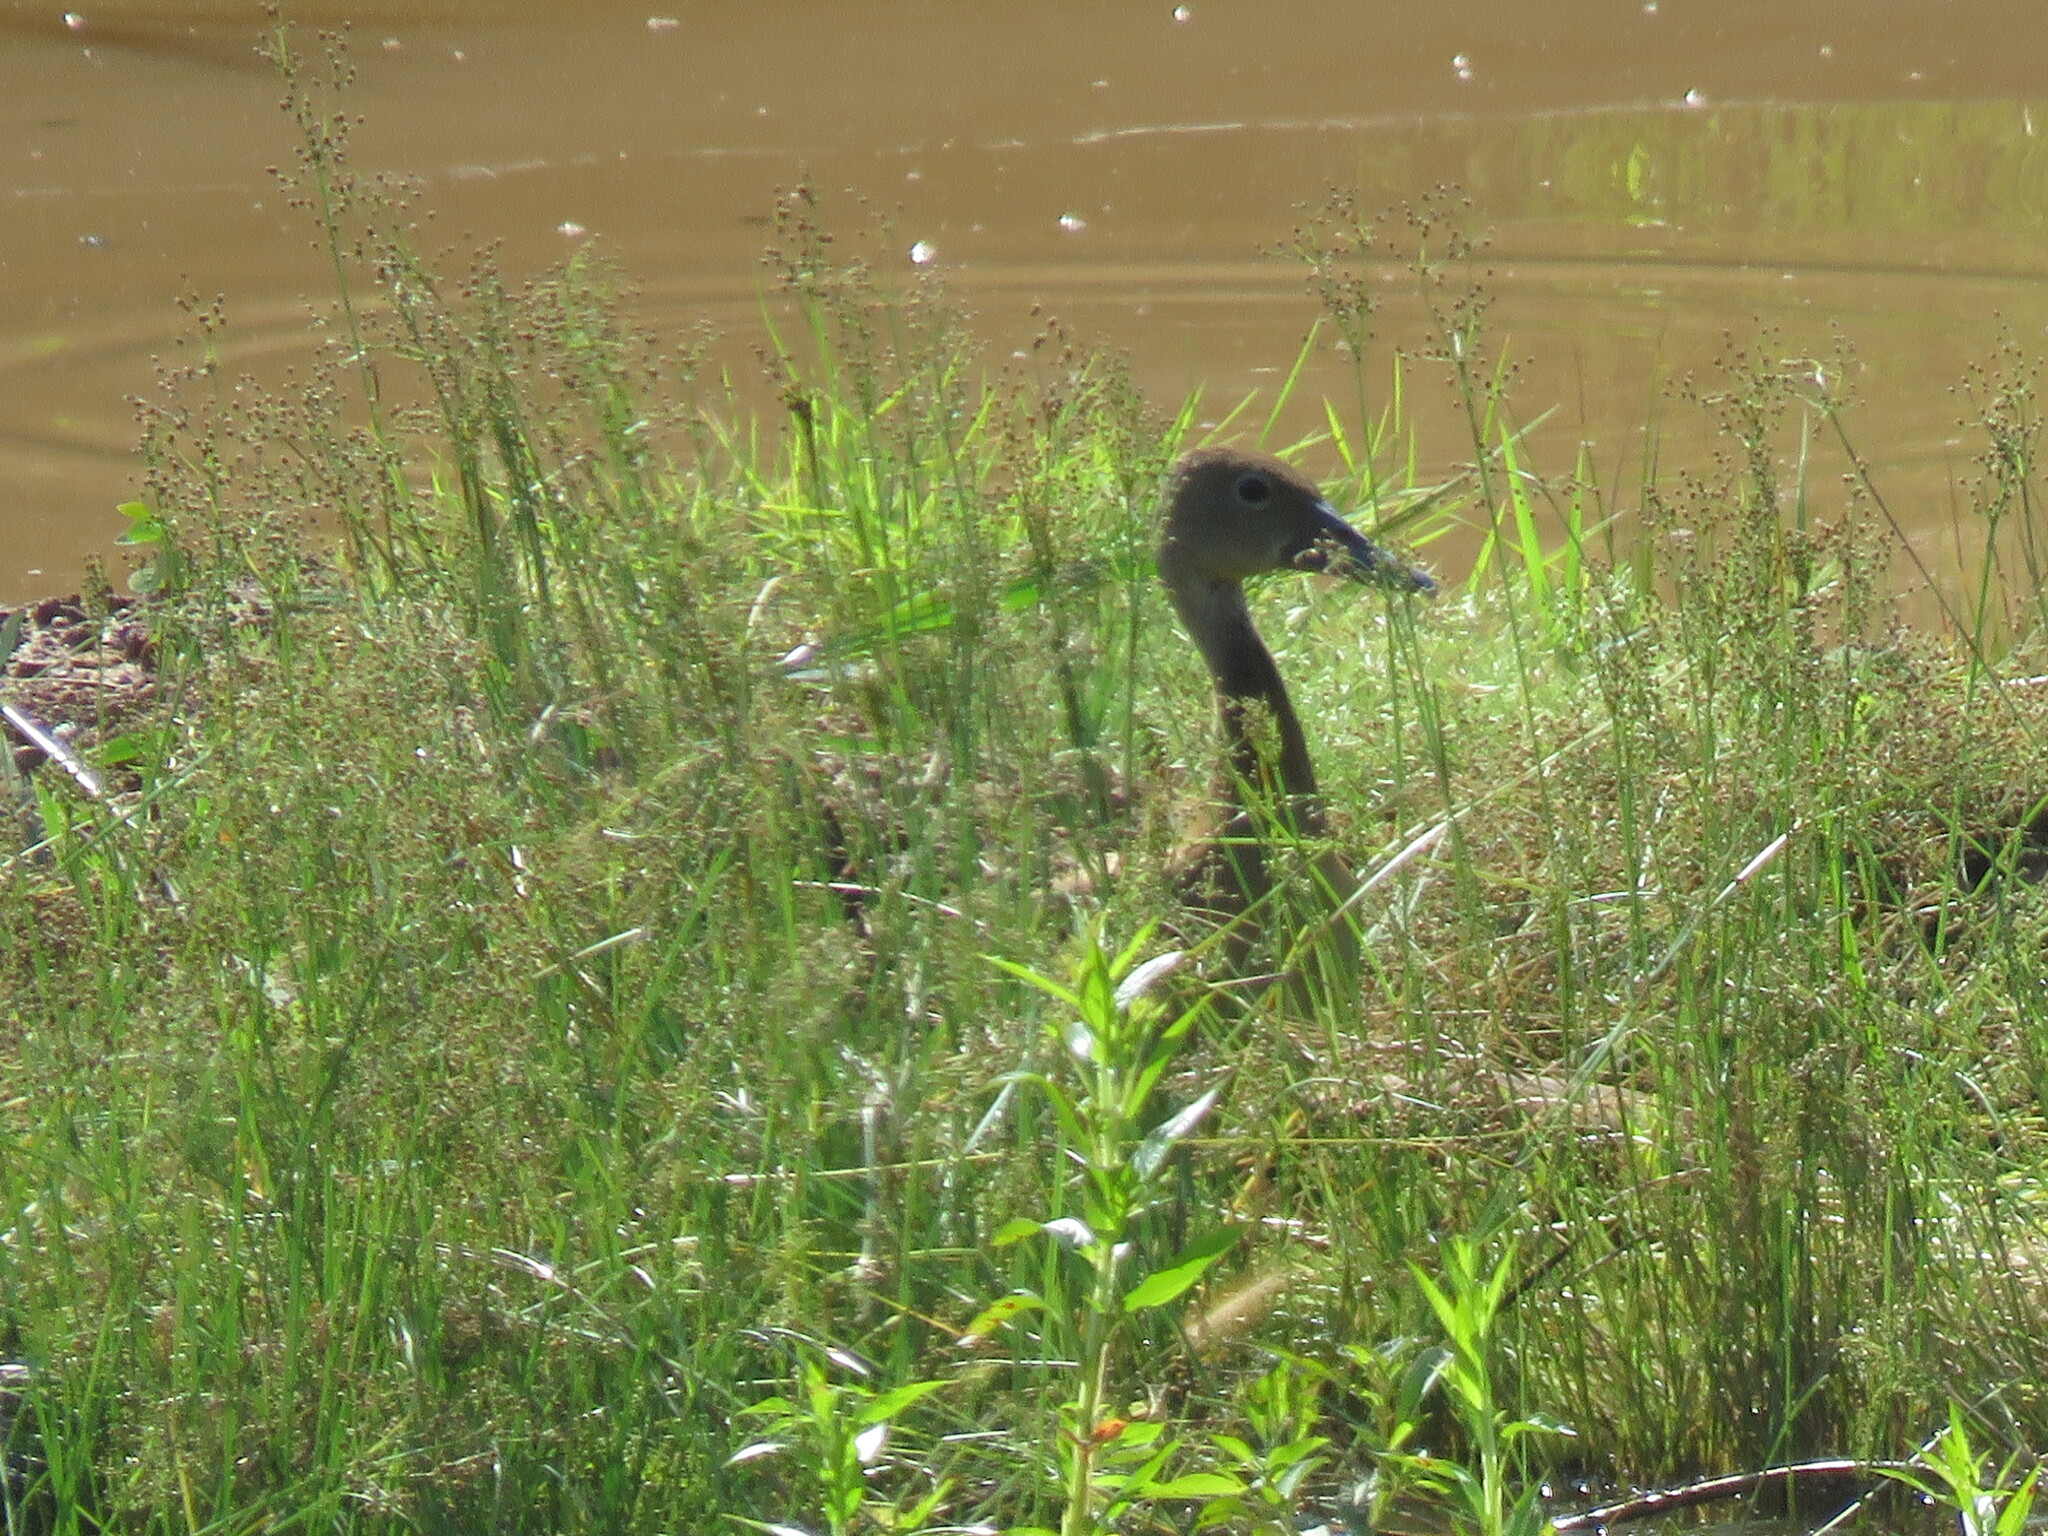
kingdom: Animalia
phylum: Chordata
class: Aves
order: Anseriformes
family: Anatidae
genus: Dendrocygna
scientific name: Dendrocygna bicolor
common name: Fulvous whistling duck
